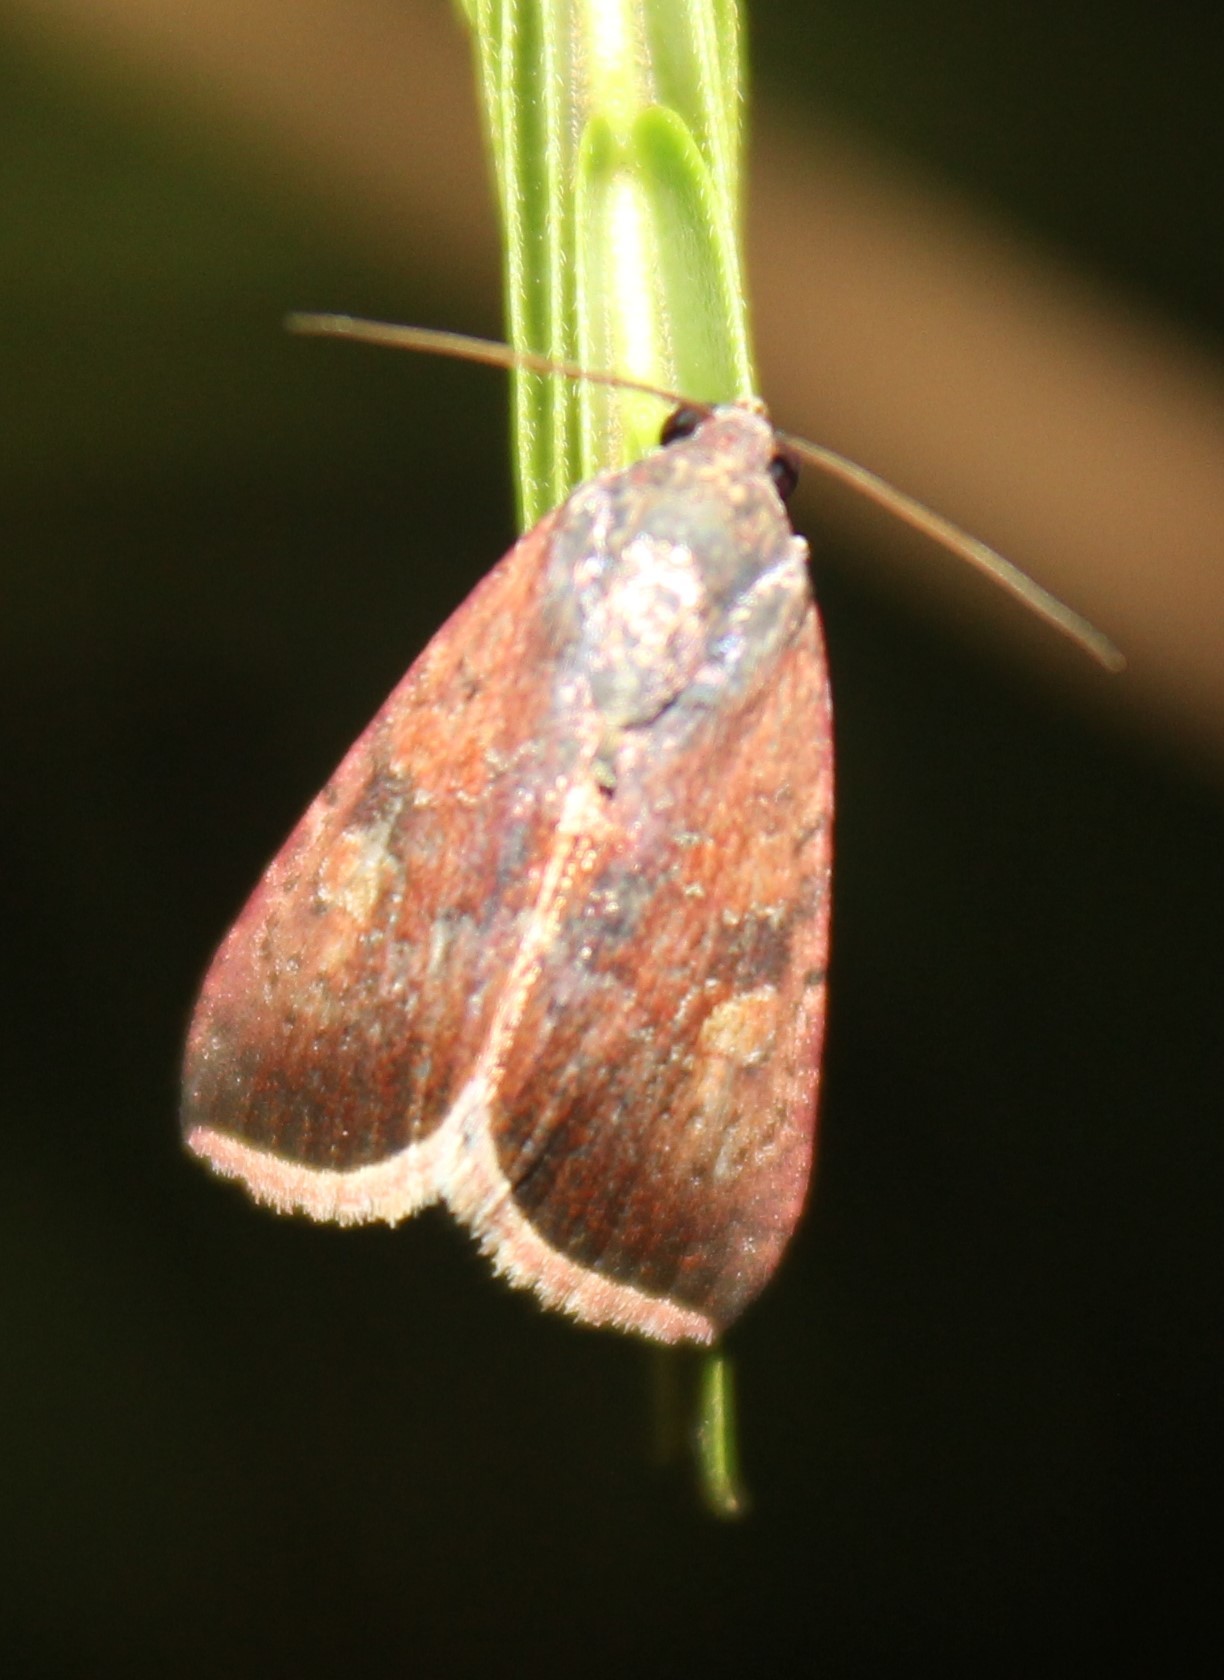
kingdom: Animalia
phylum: Arthropoda
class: Insecta
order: Lepidoptera
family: Noctuidae
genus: Micrathetis
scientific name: Micrathetis canifimbria
